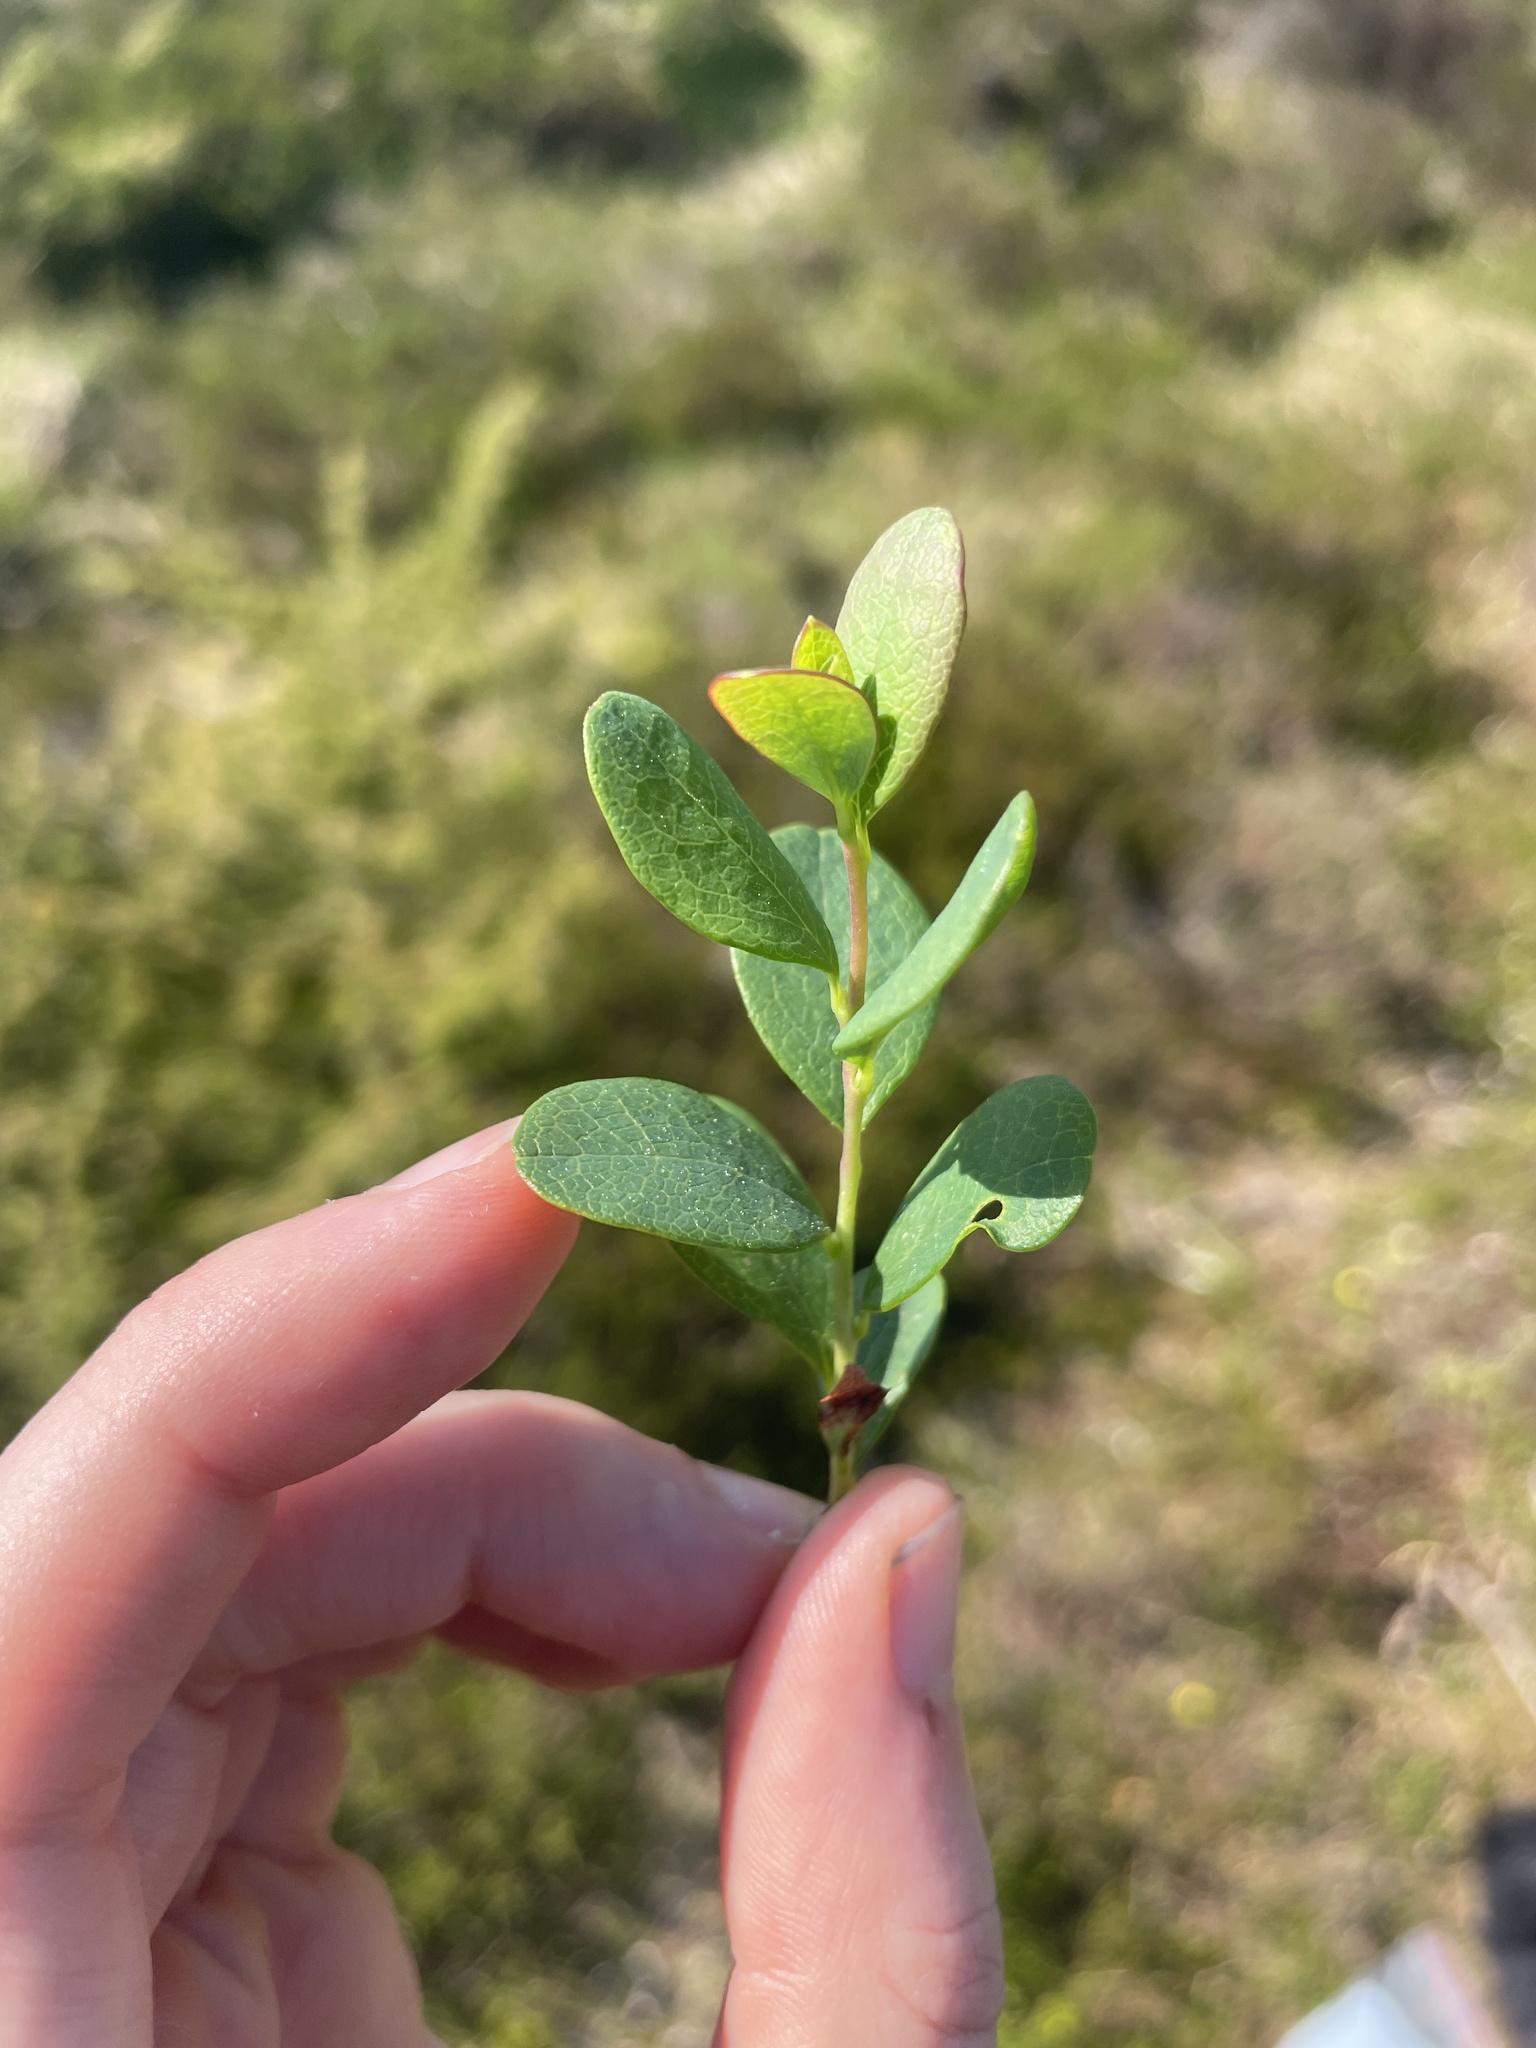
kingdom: Plantae
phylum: Tracheophyta
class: Magnoliopsida
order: Ericales
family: Ericaceae
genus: Vaccinium
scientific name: Vaccinium uliginosum
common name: Bog bilberry
